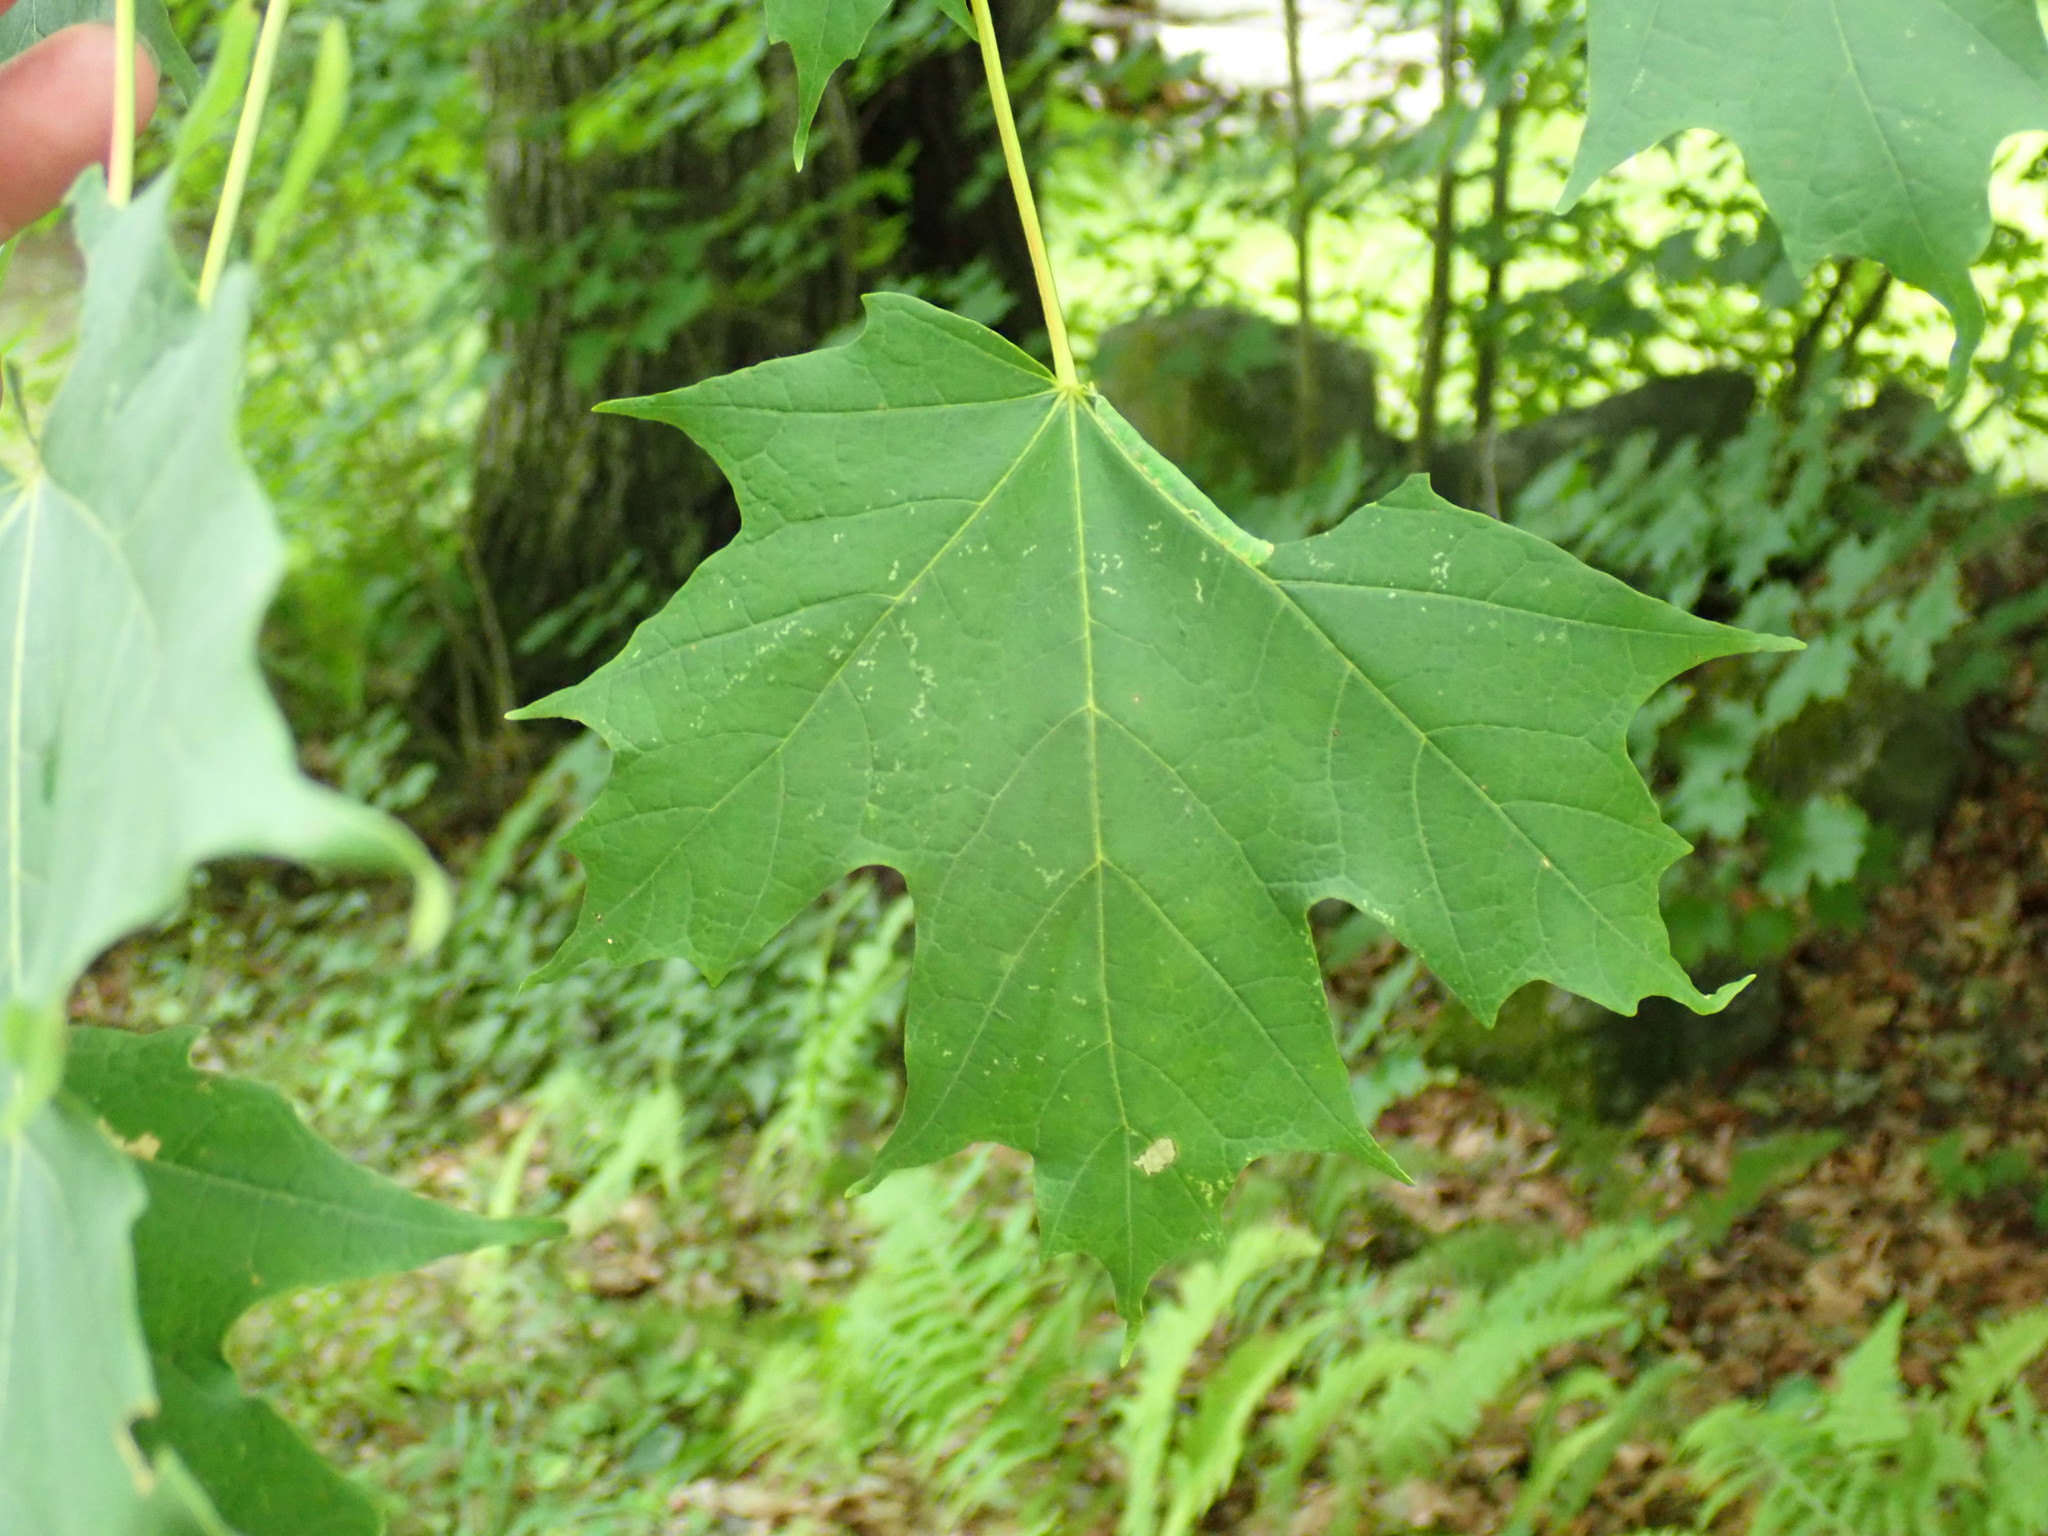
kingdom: Animalia
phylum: Arthropoda
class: Insecta
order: Lepidoptera
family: Notodontidae
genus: Disphragis
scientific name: Disphragis Cecrita guttivitta
